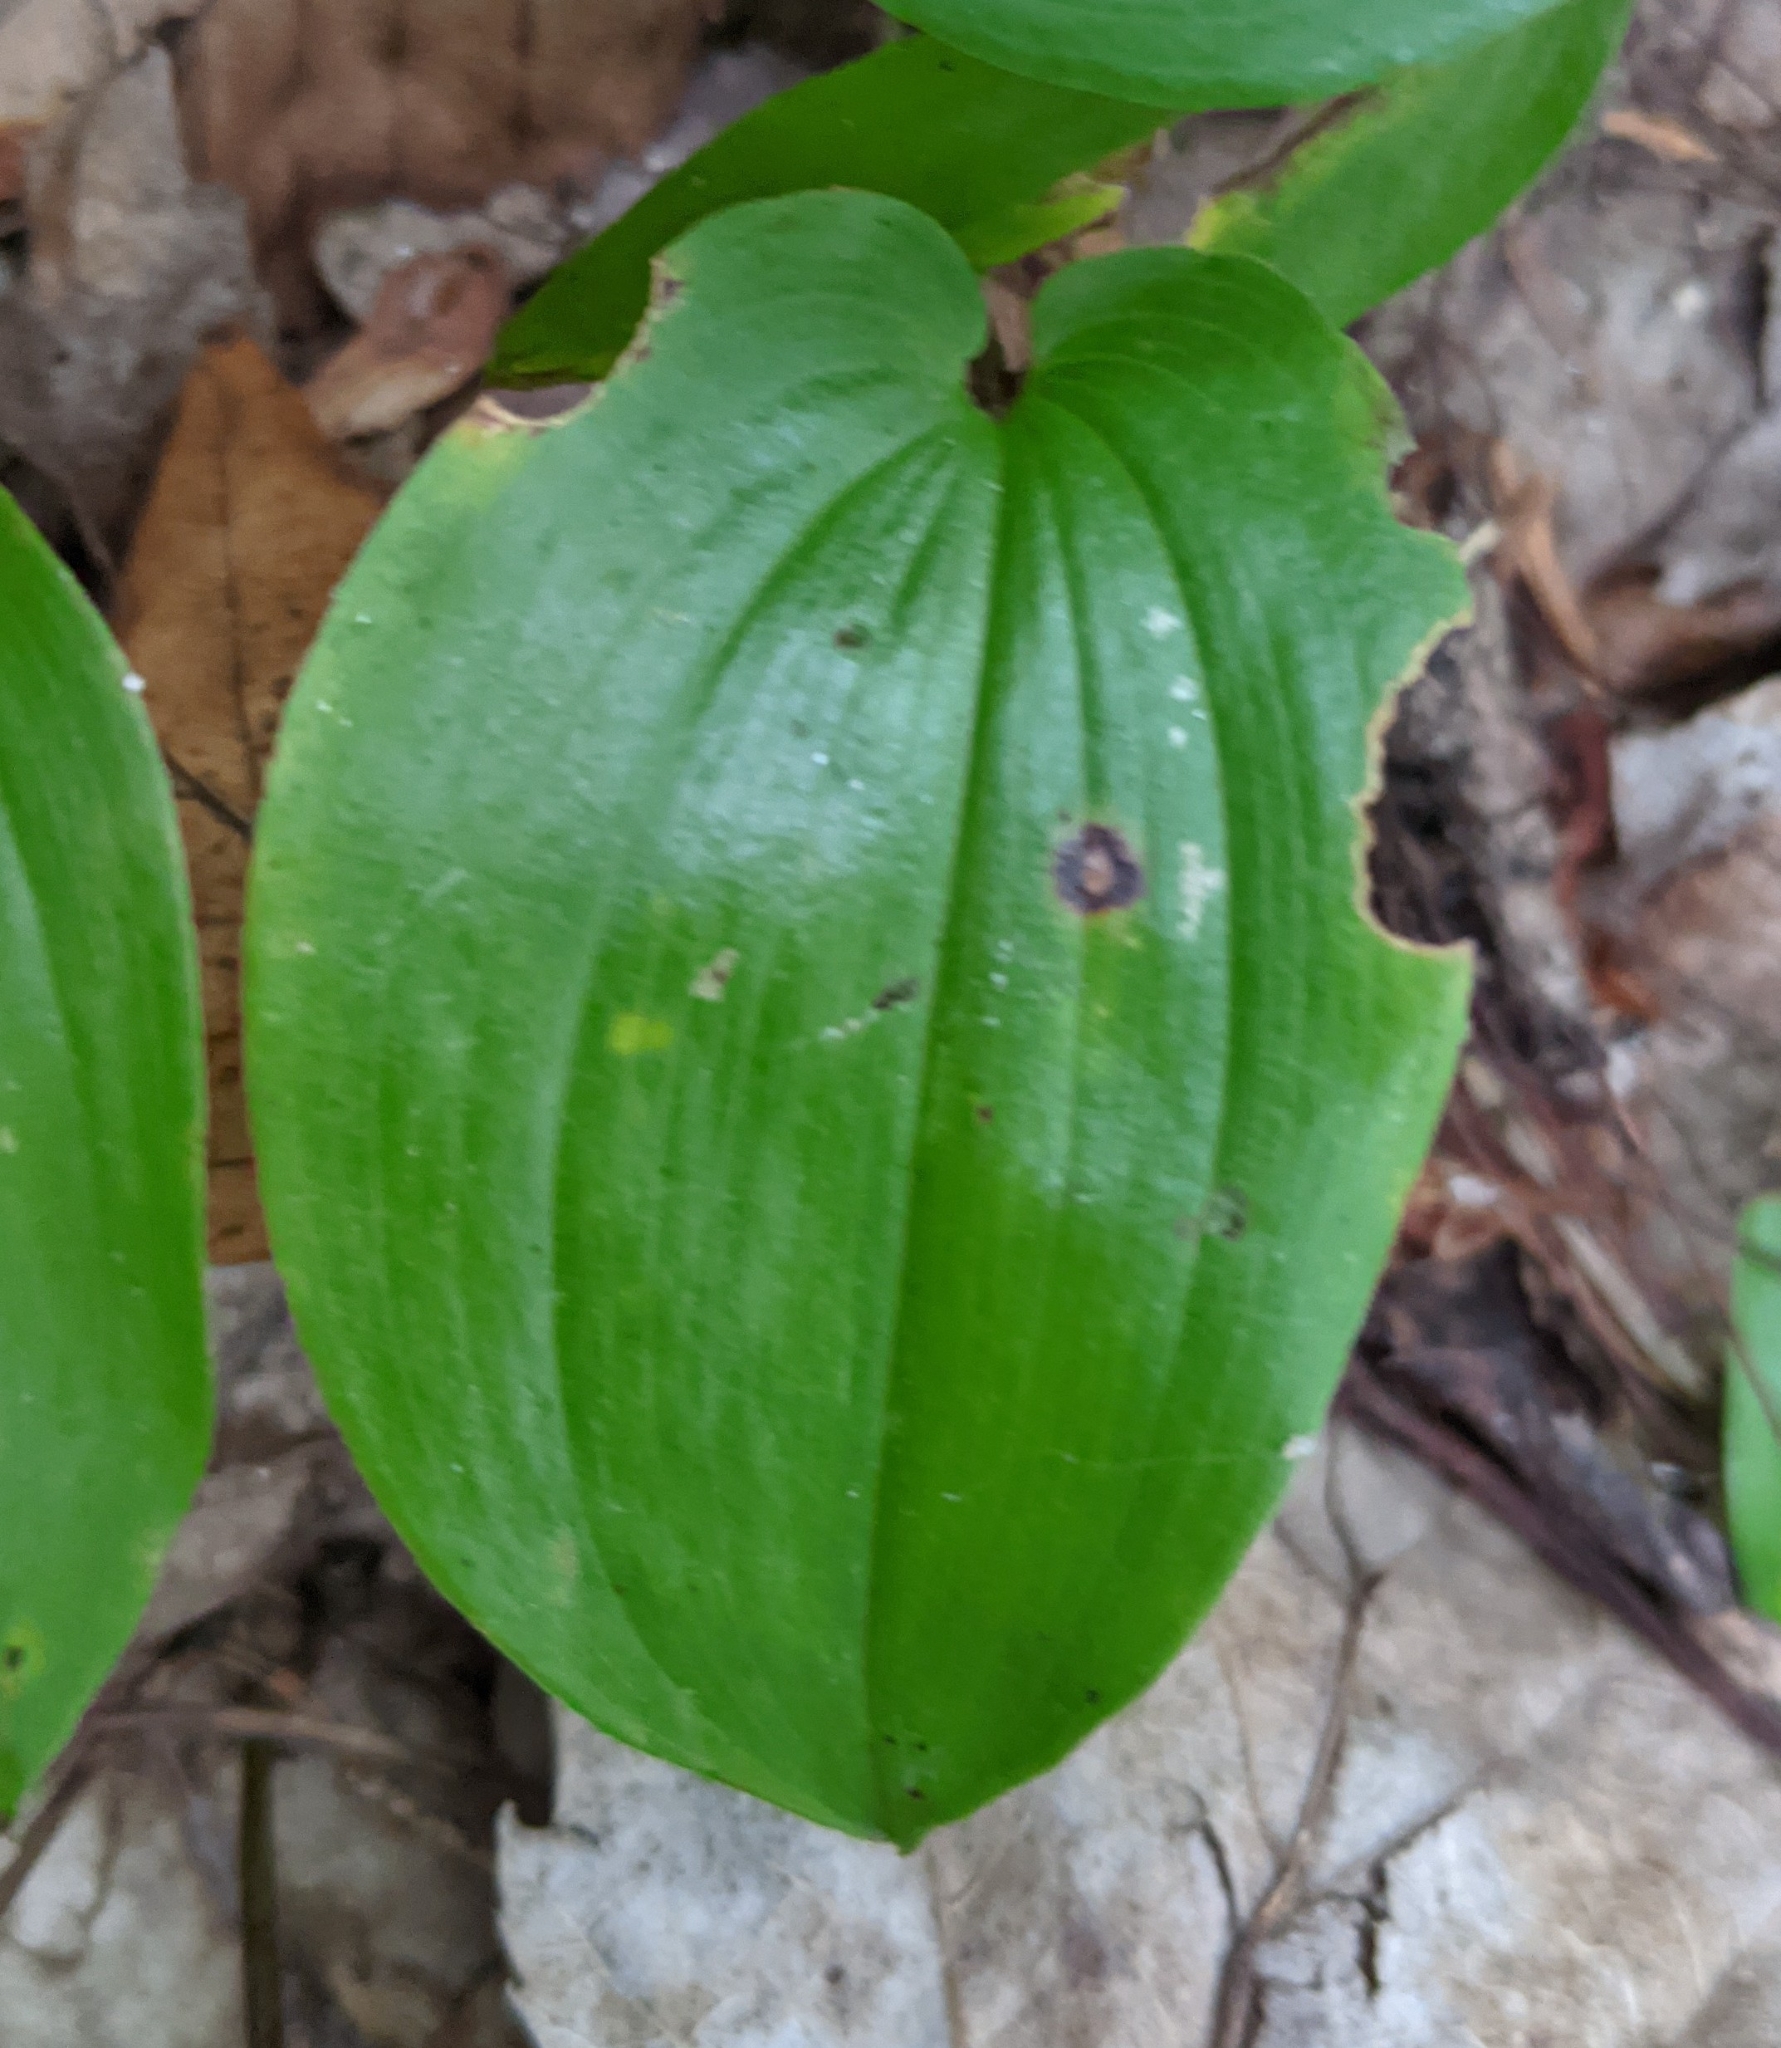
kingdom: Plantae
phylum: Tracheophyta
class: Liliopsida
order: Asparagales
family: Asparagaceae
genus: Maianthemum
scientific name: Maianthemum canadense
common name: False lily-of-the-valley
